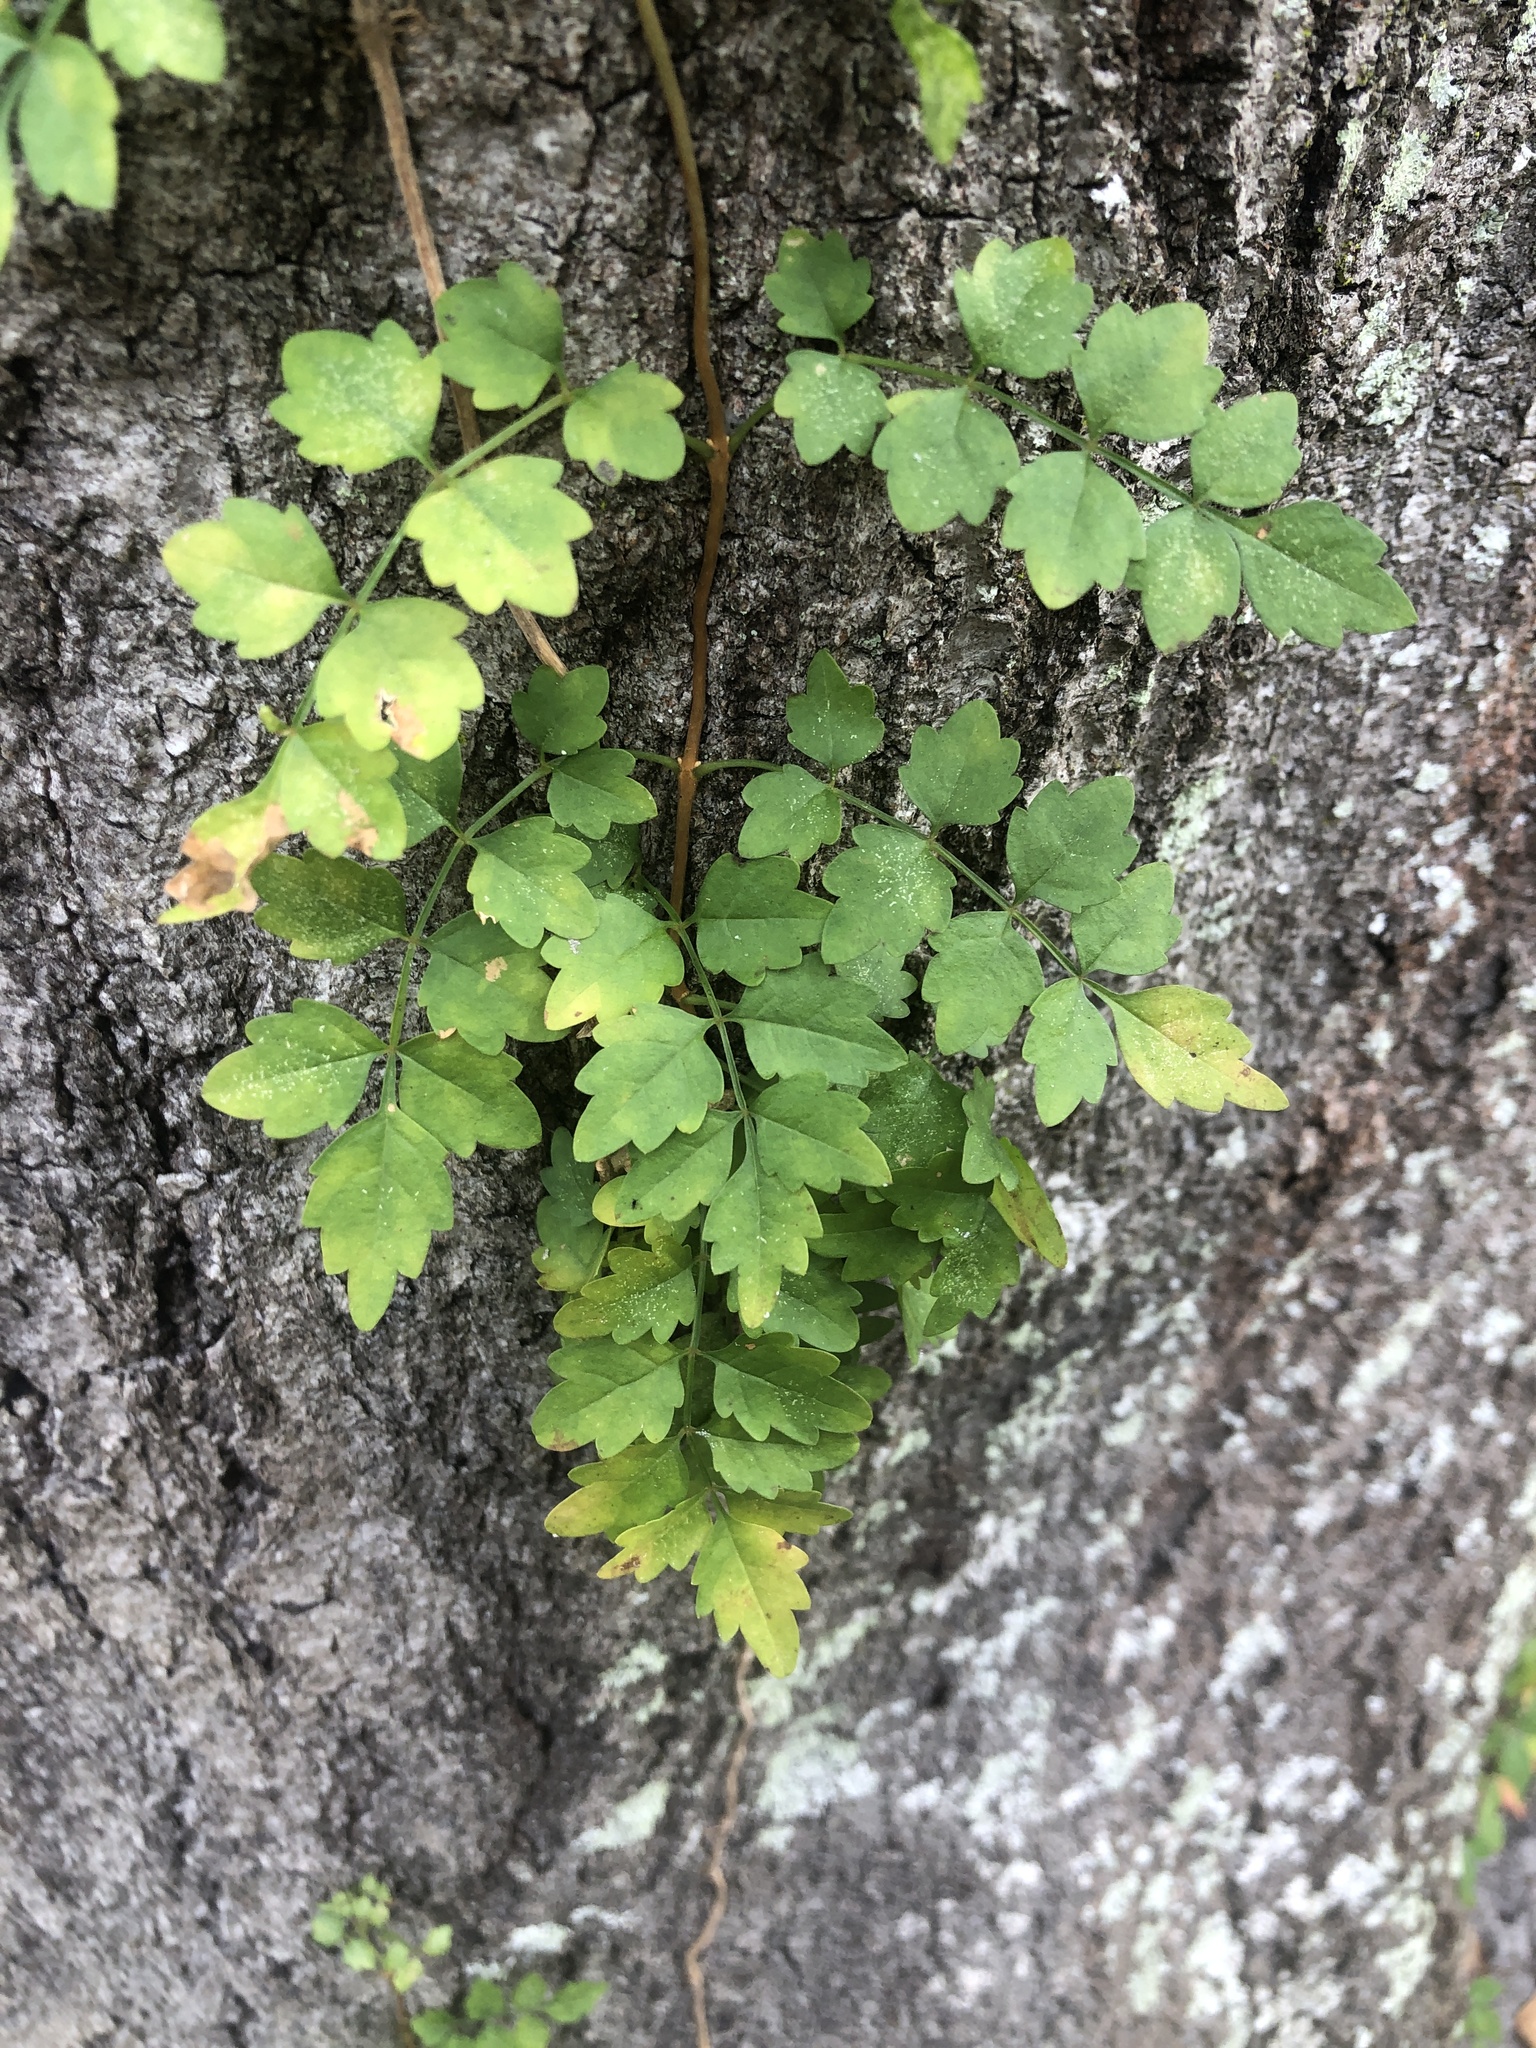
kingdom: Plantae
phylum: Tracheophyta
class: Magnoliopsida
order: Lamiales
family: Bignoniaceae
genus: Campsis
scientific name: Campsis radicans
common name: Trumpet-creeper
